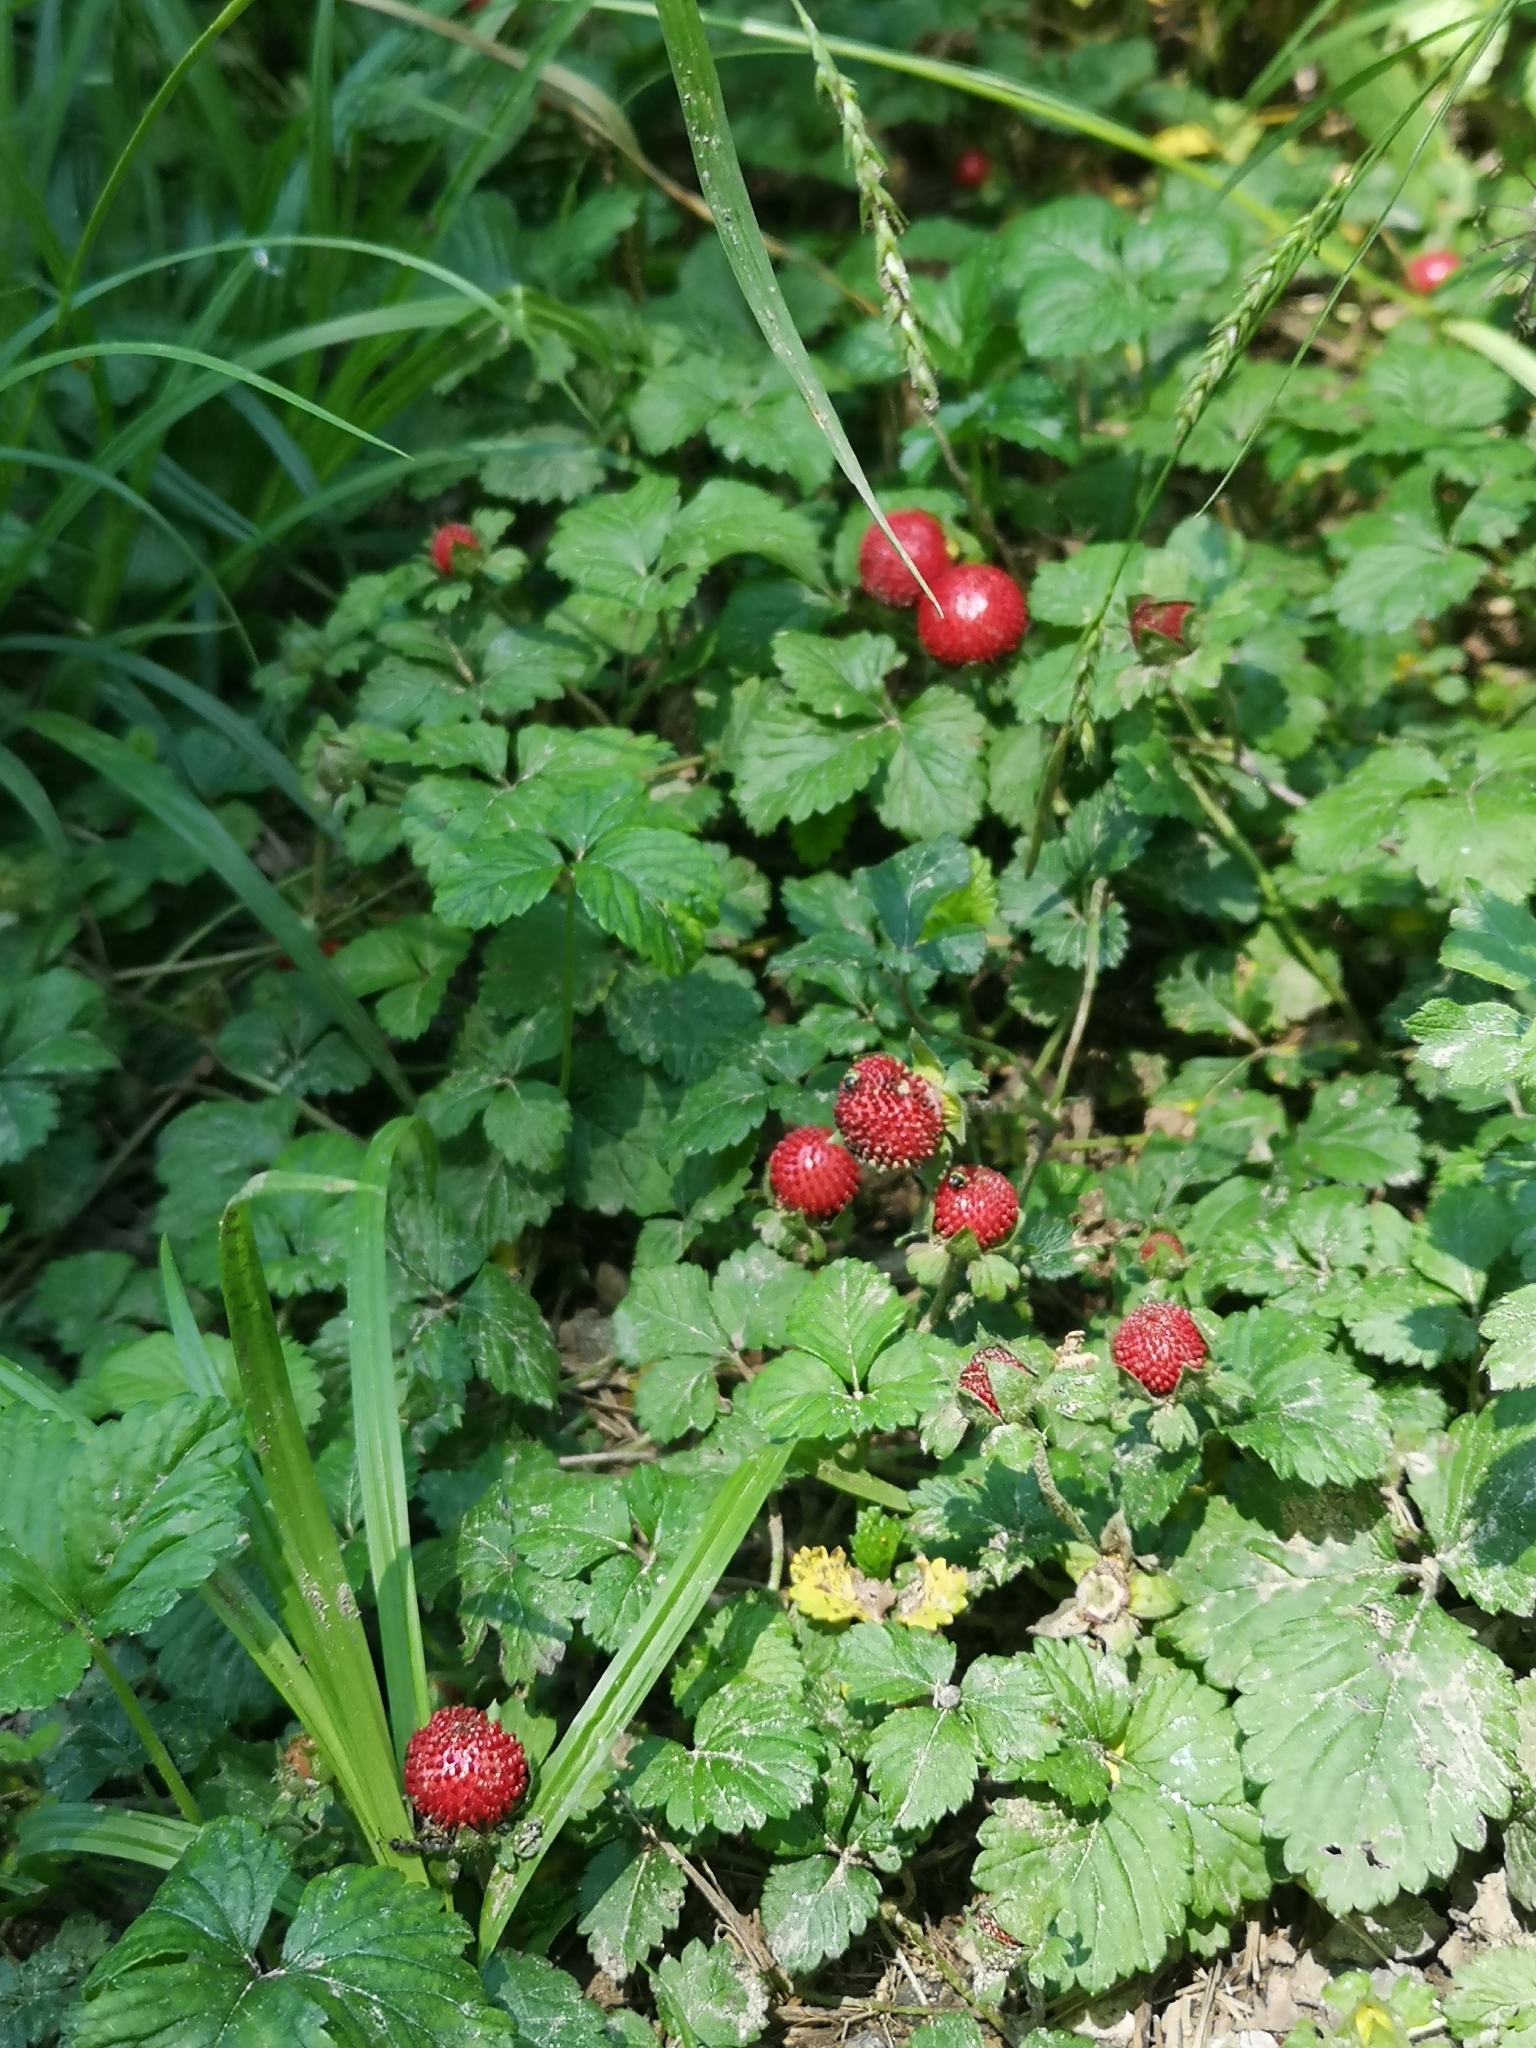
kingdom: Plantae
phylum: Tracheophyta
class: Magnoliopsida
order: Rosales
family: Rosaceae
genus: Potentilla
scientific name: Potentilla indica
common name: Yellow-flowered strawberry
